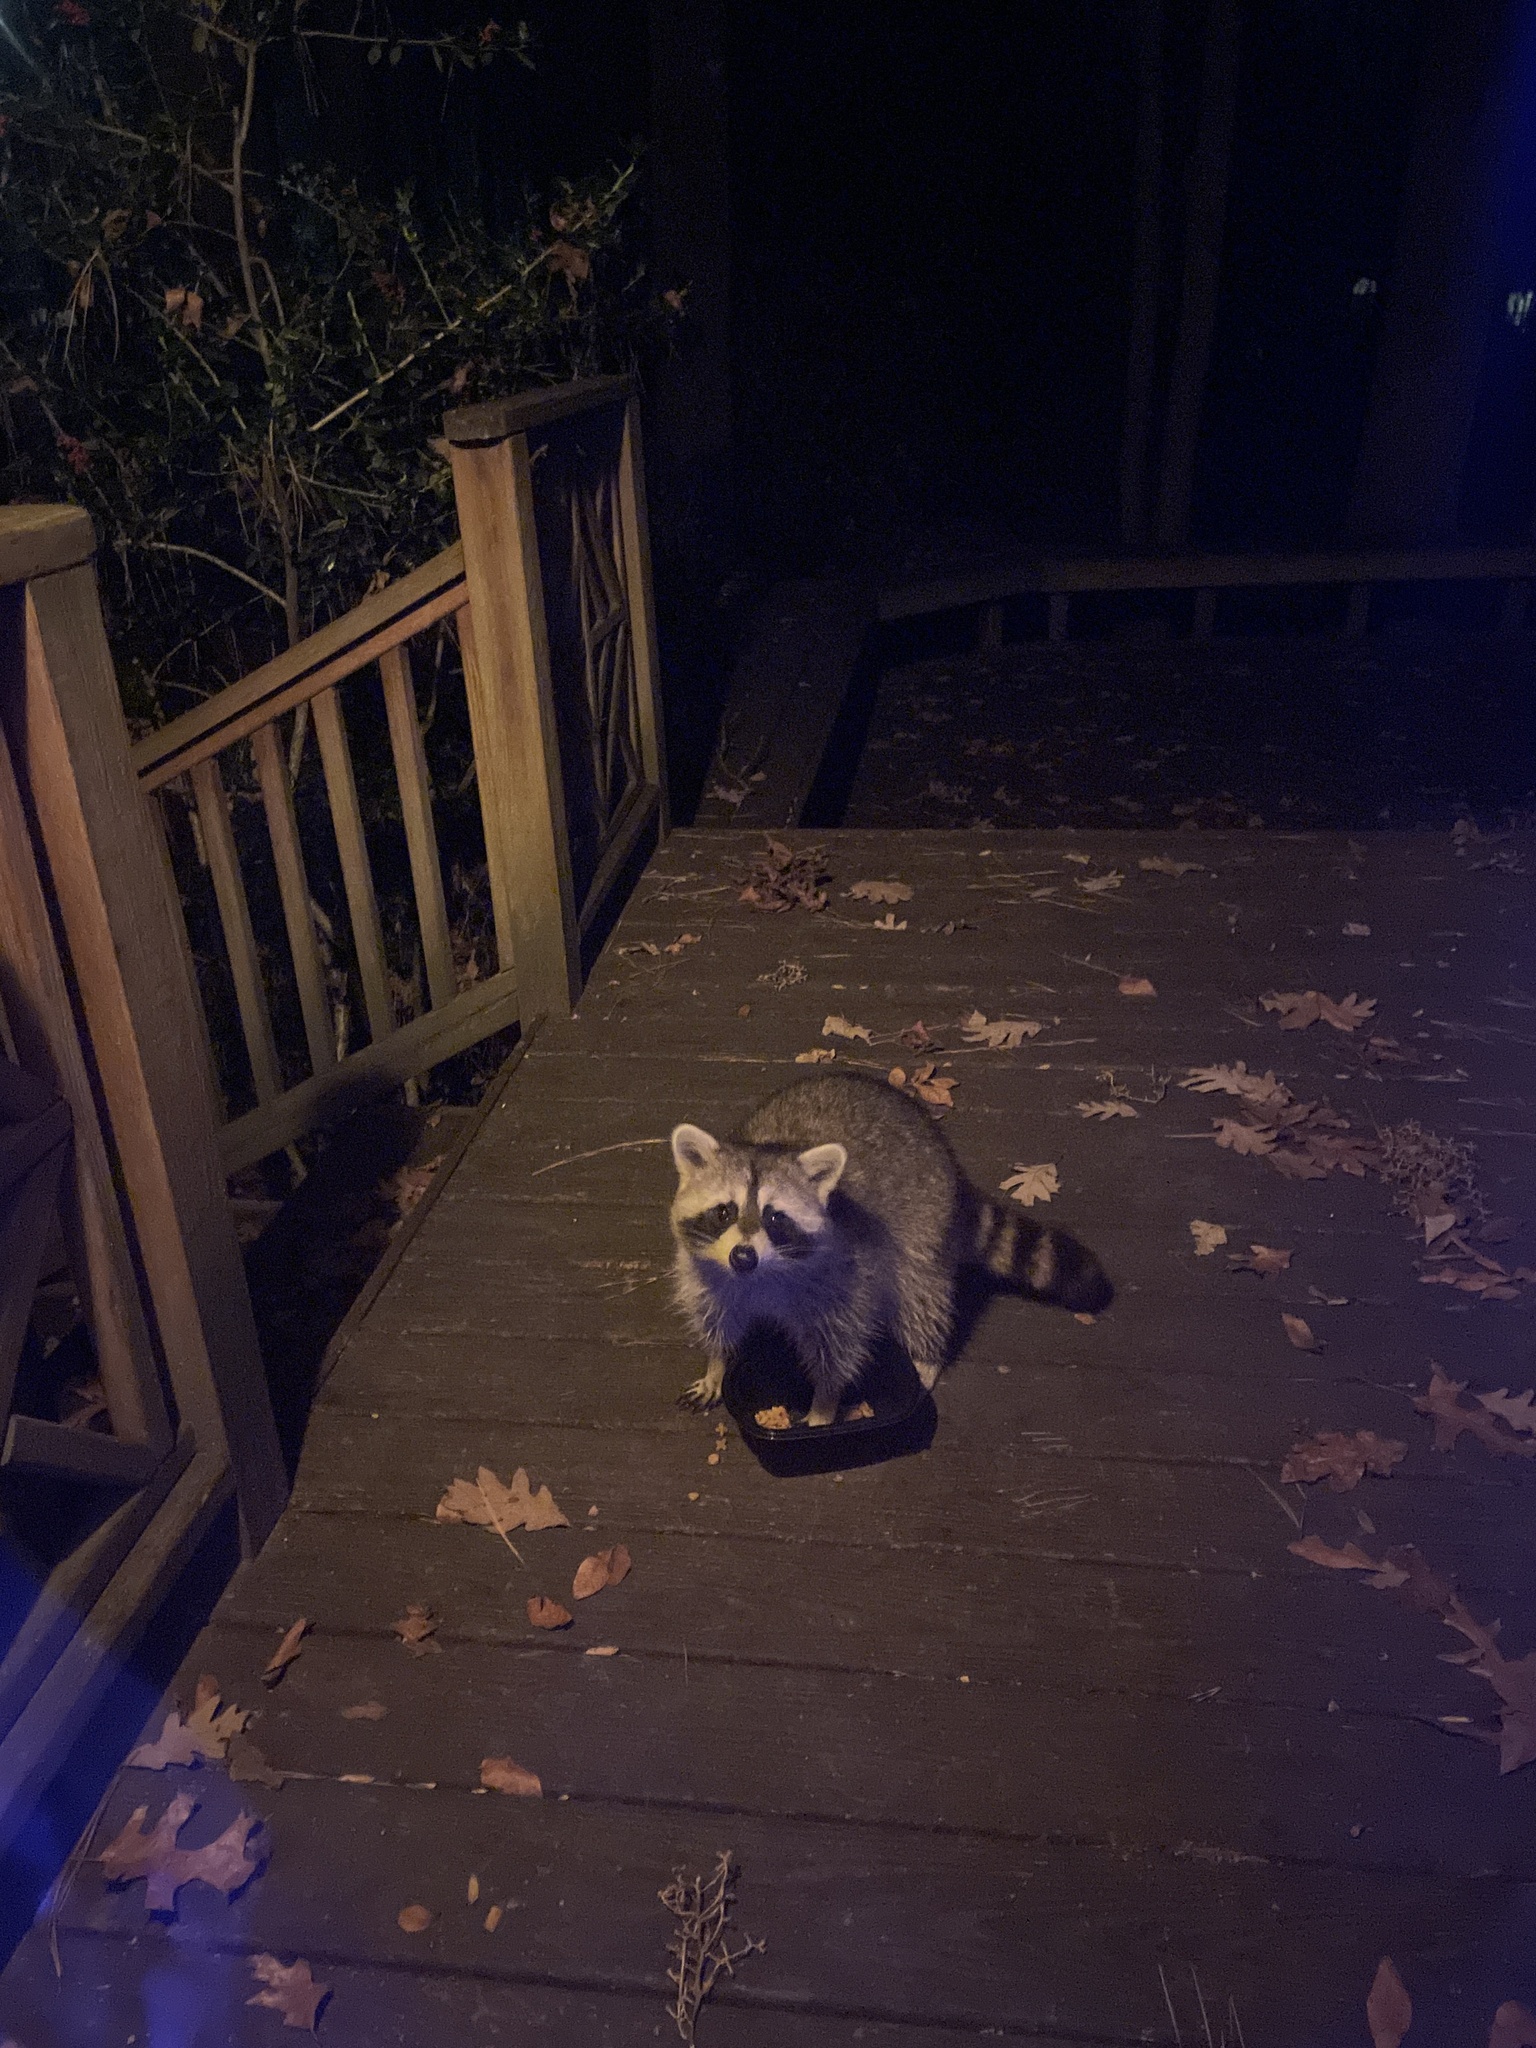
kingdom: Animalia
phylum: Chordata
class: Mammalia
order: Carnivora
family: Procyonidae
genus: Procyon
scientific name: Procyon lotor
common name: Raccoon
